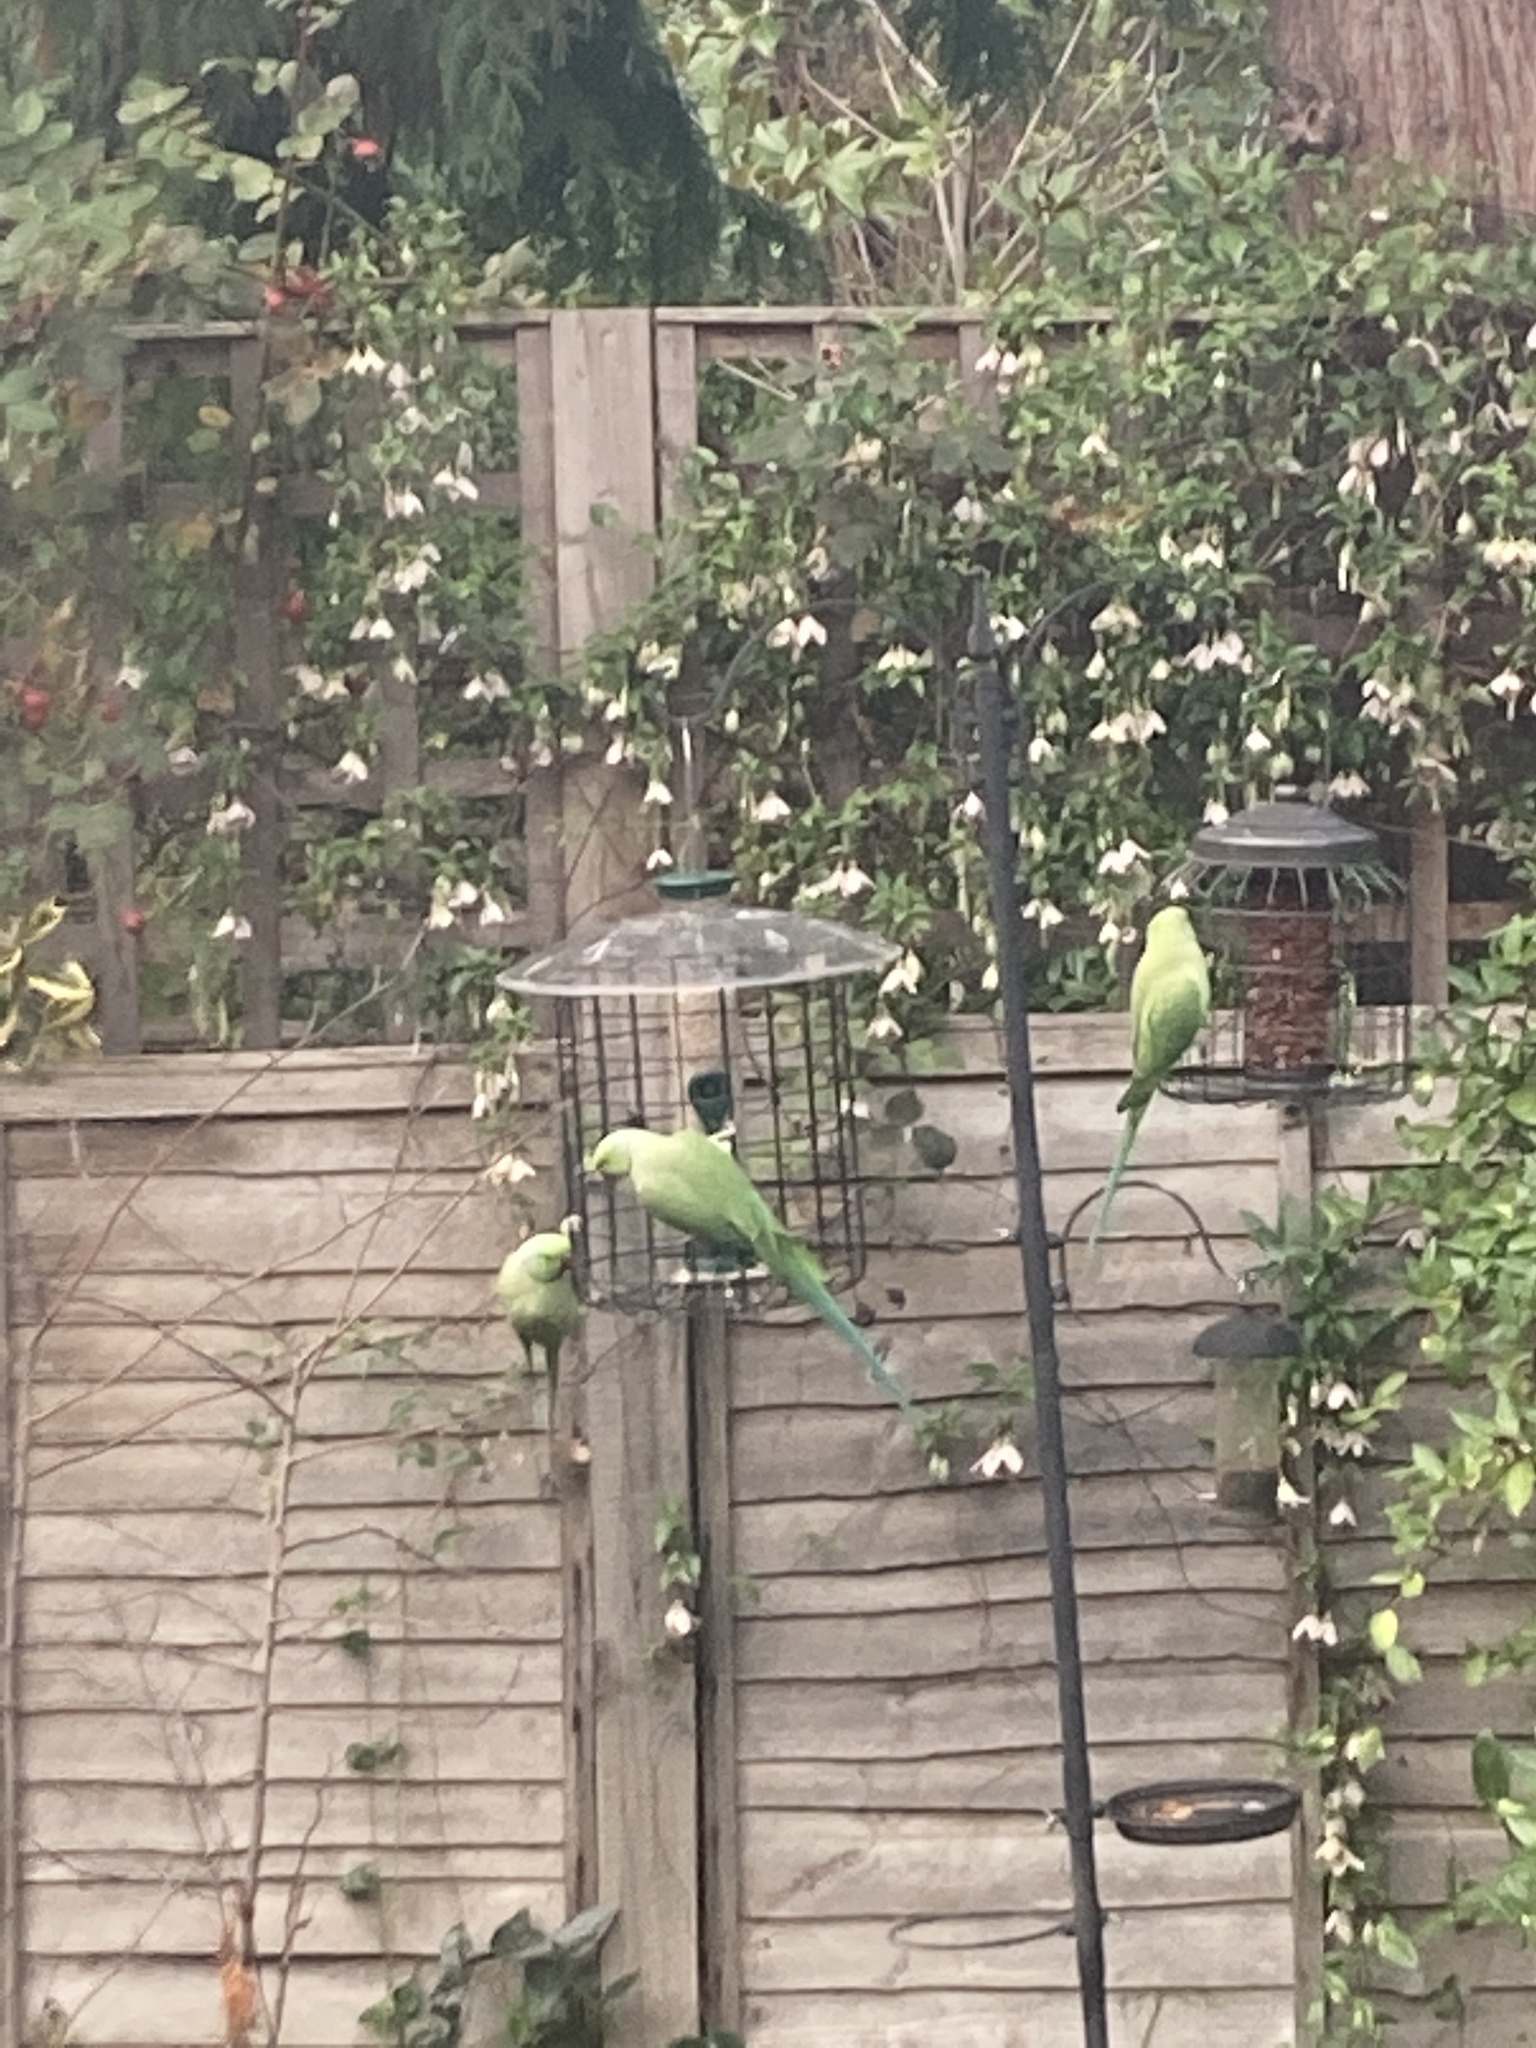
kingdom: Animalia
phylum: Chordata
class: Aves
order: Psittaciformes
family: Psittacidae
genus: Psittacula
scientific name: Psittacula krameri
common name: Rose-ringed parakeet
